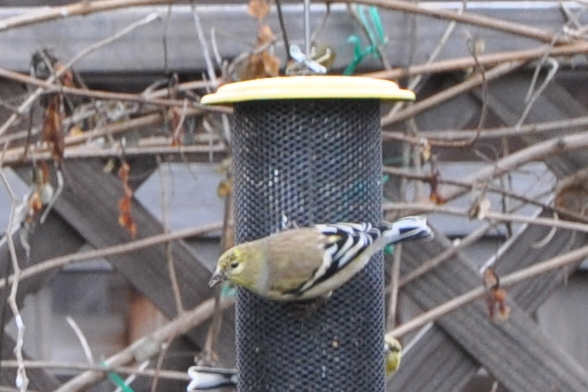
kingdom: Animalia
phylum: Chordata
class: Aves
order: Passeriformes
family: Fringillidae
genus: Spinus
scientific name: Spinus tristis
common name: American goldfinch
